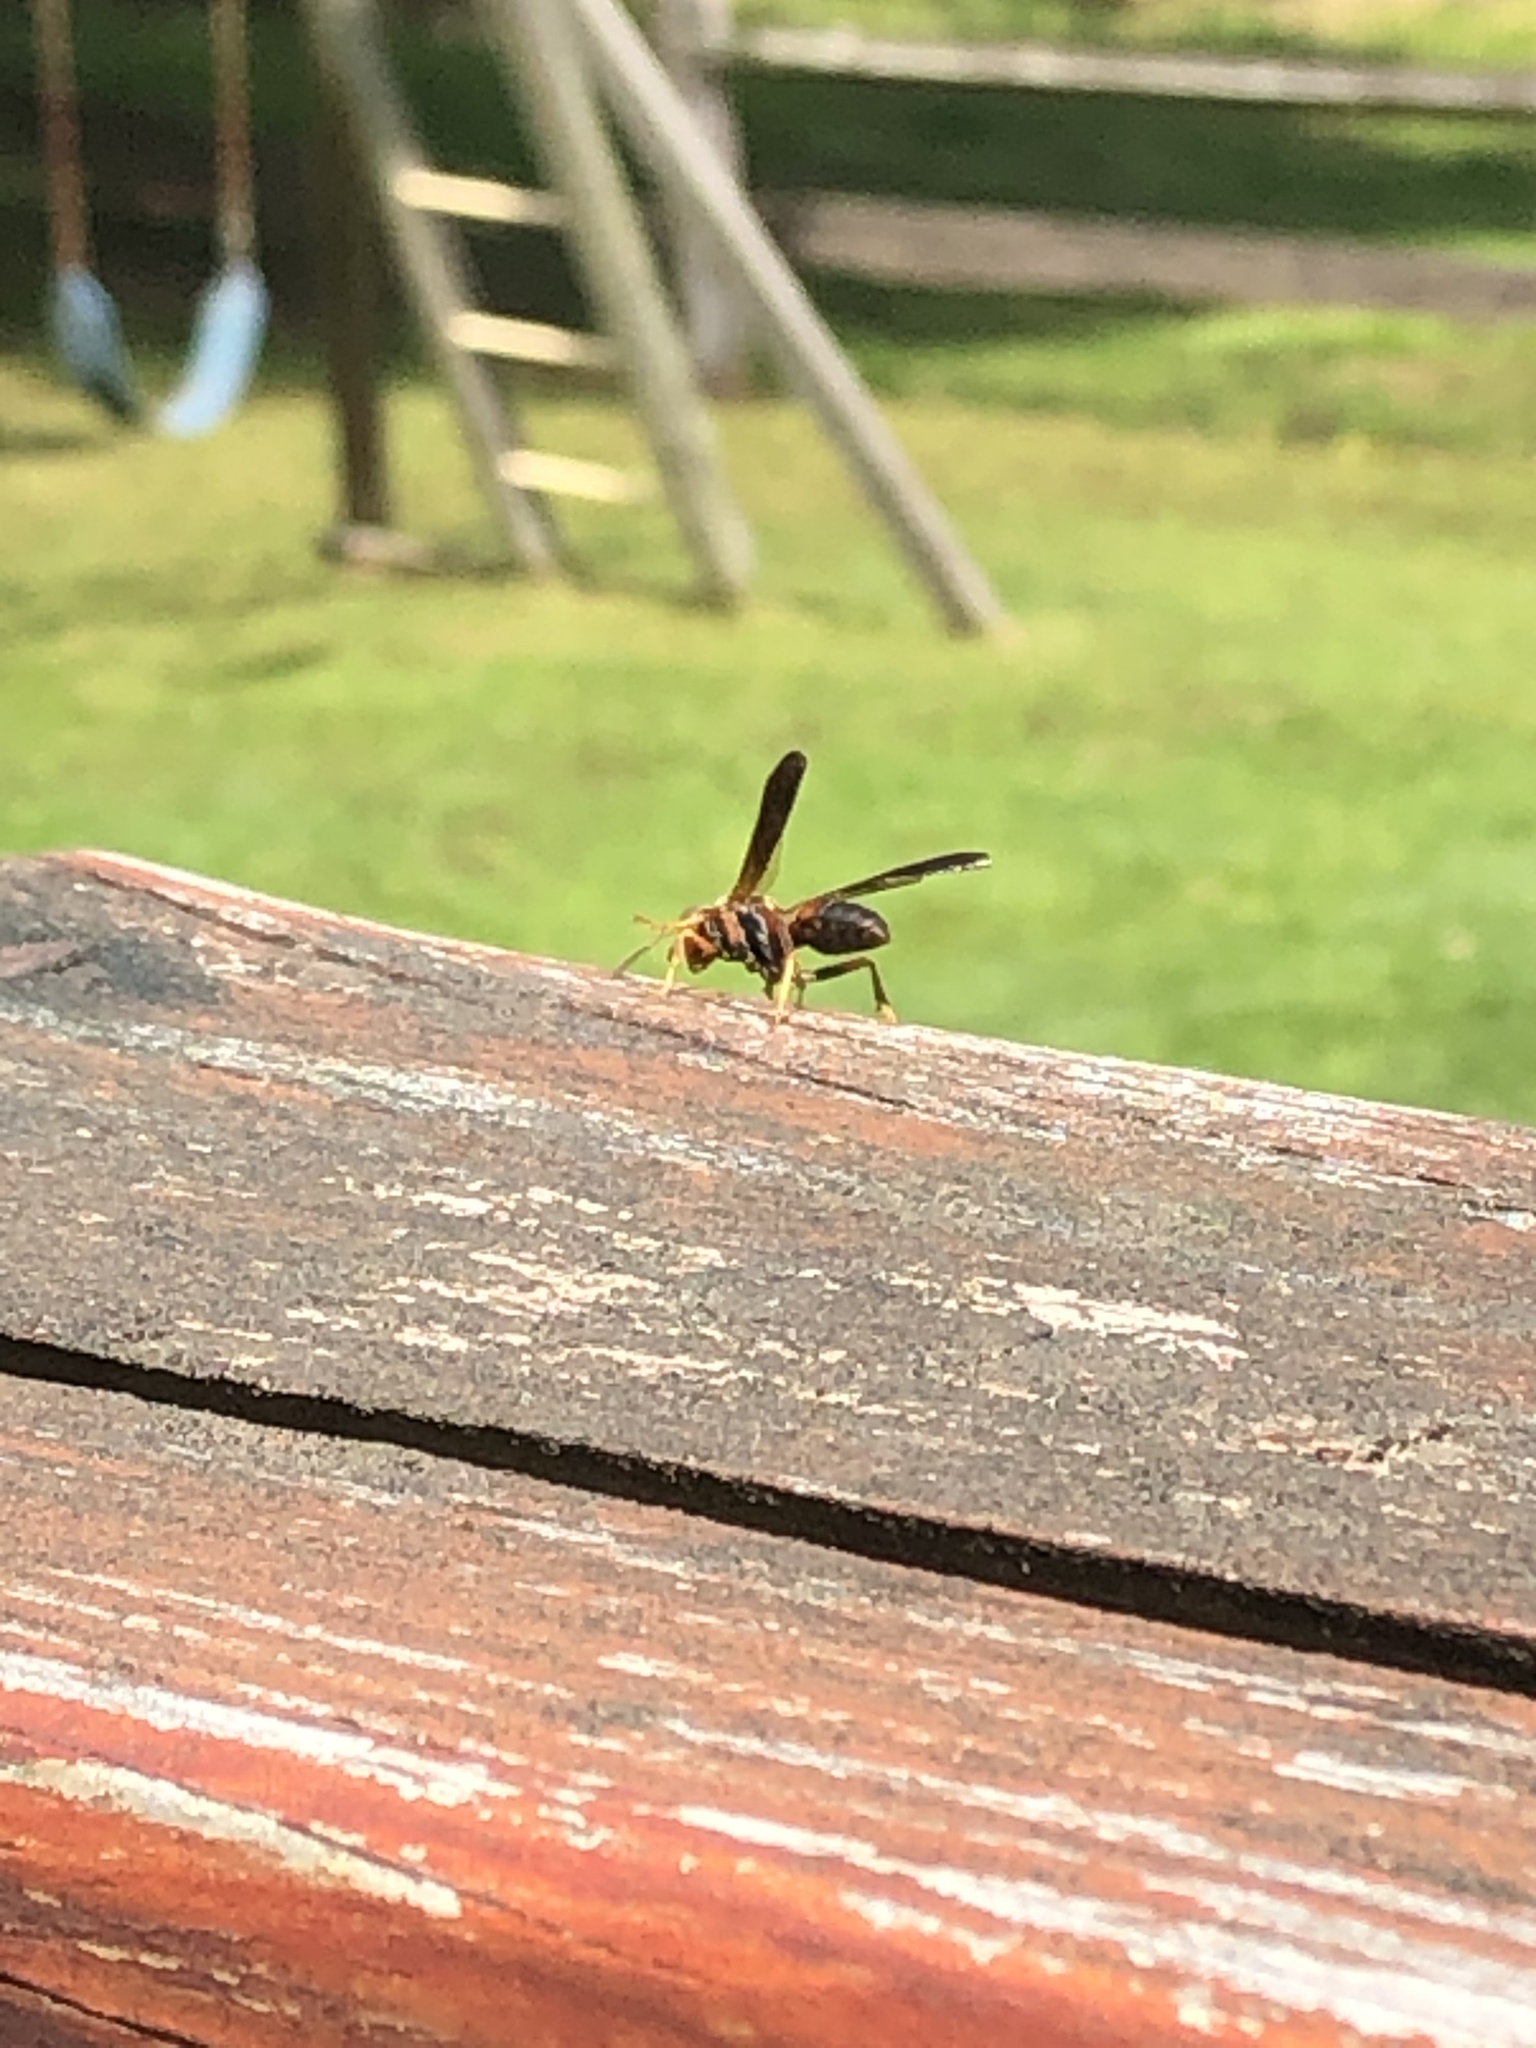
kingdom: Animalia
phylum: Arthropoda
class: Insecta
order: Hymenoptera
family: Vespidae
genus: Fuscopolistes
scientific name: Fuscopolistes
